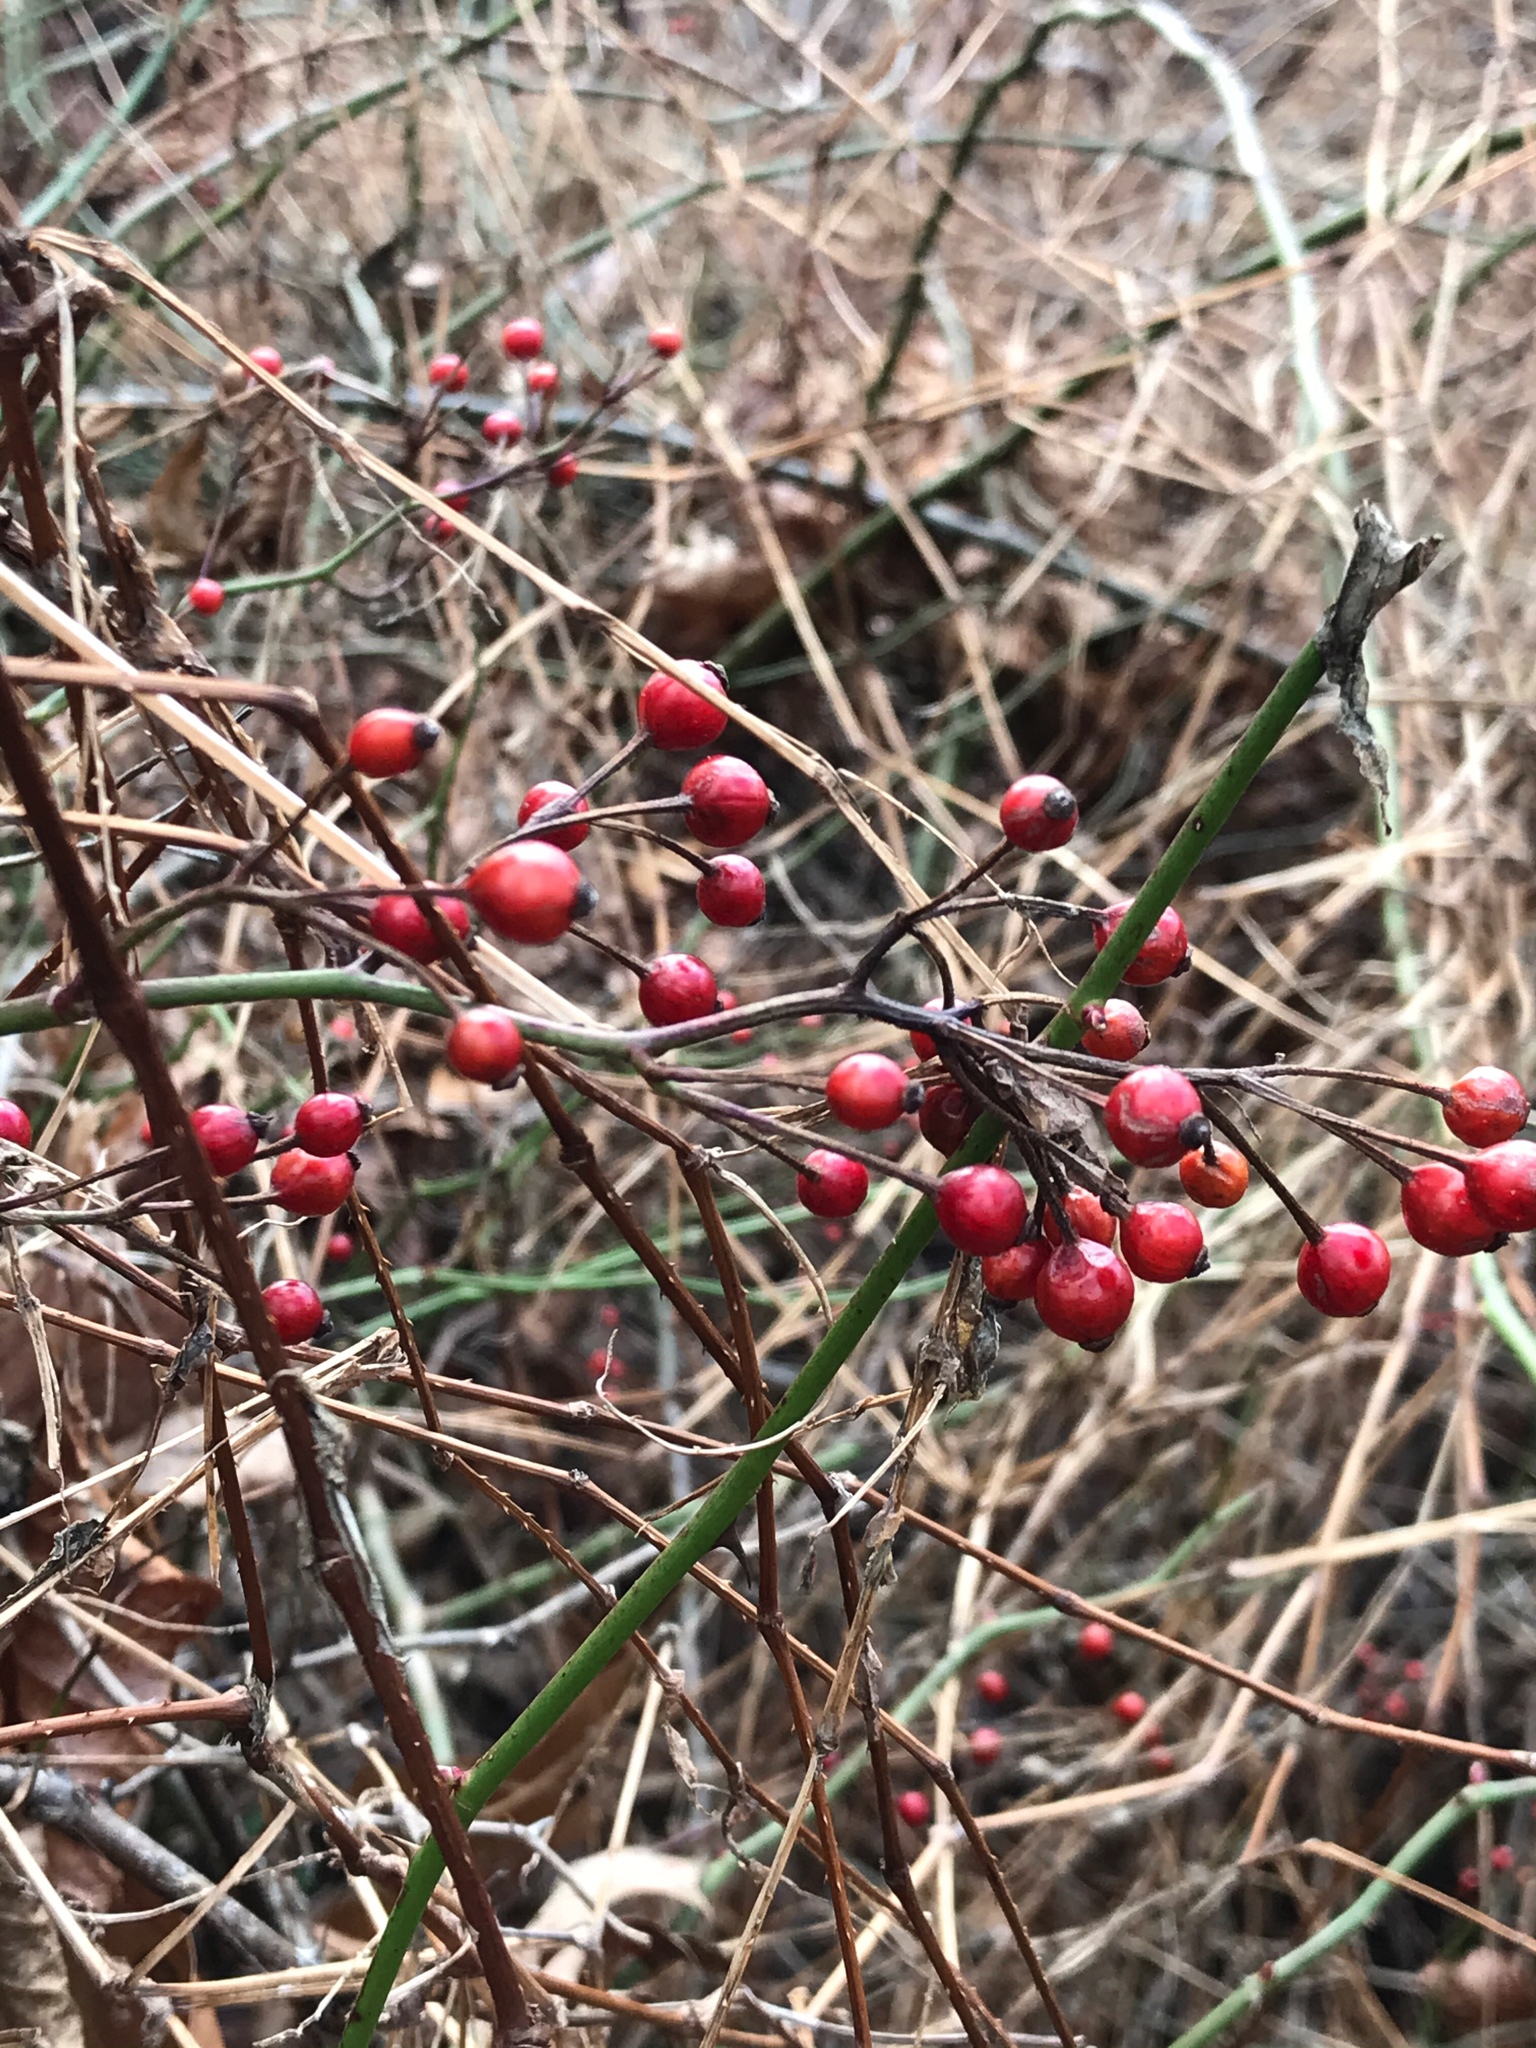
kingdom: Plantae
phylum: Tracheophyta
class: Magnoliopsida
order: Rosales
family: Rosaceae
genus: Rosa
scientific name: Rosa multiflora
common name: Multiflora rose
